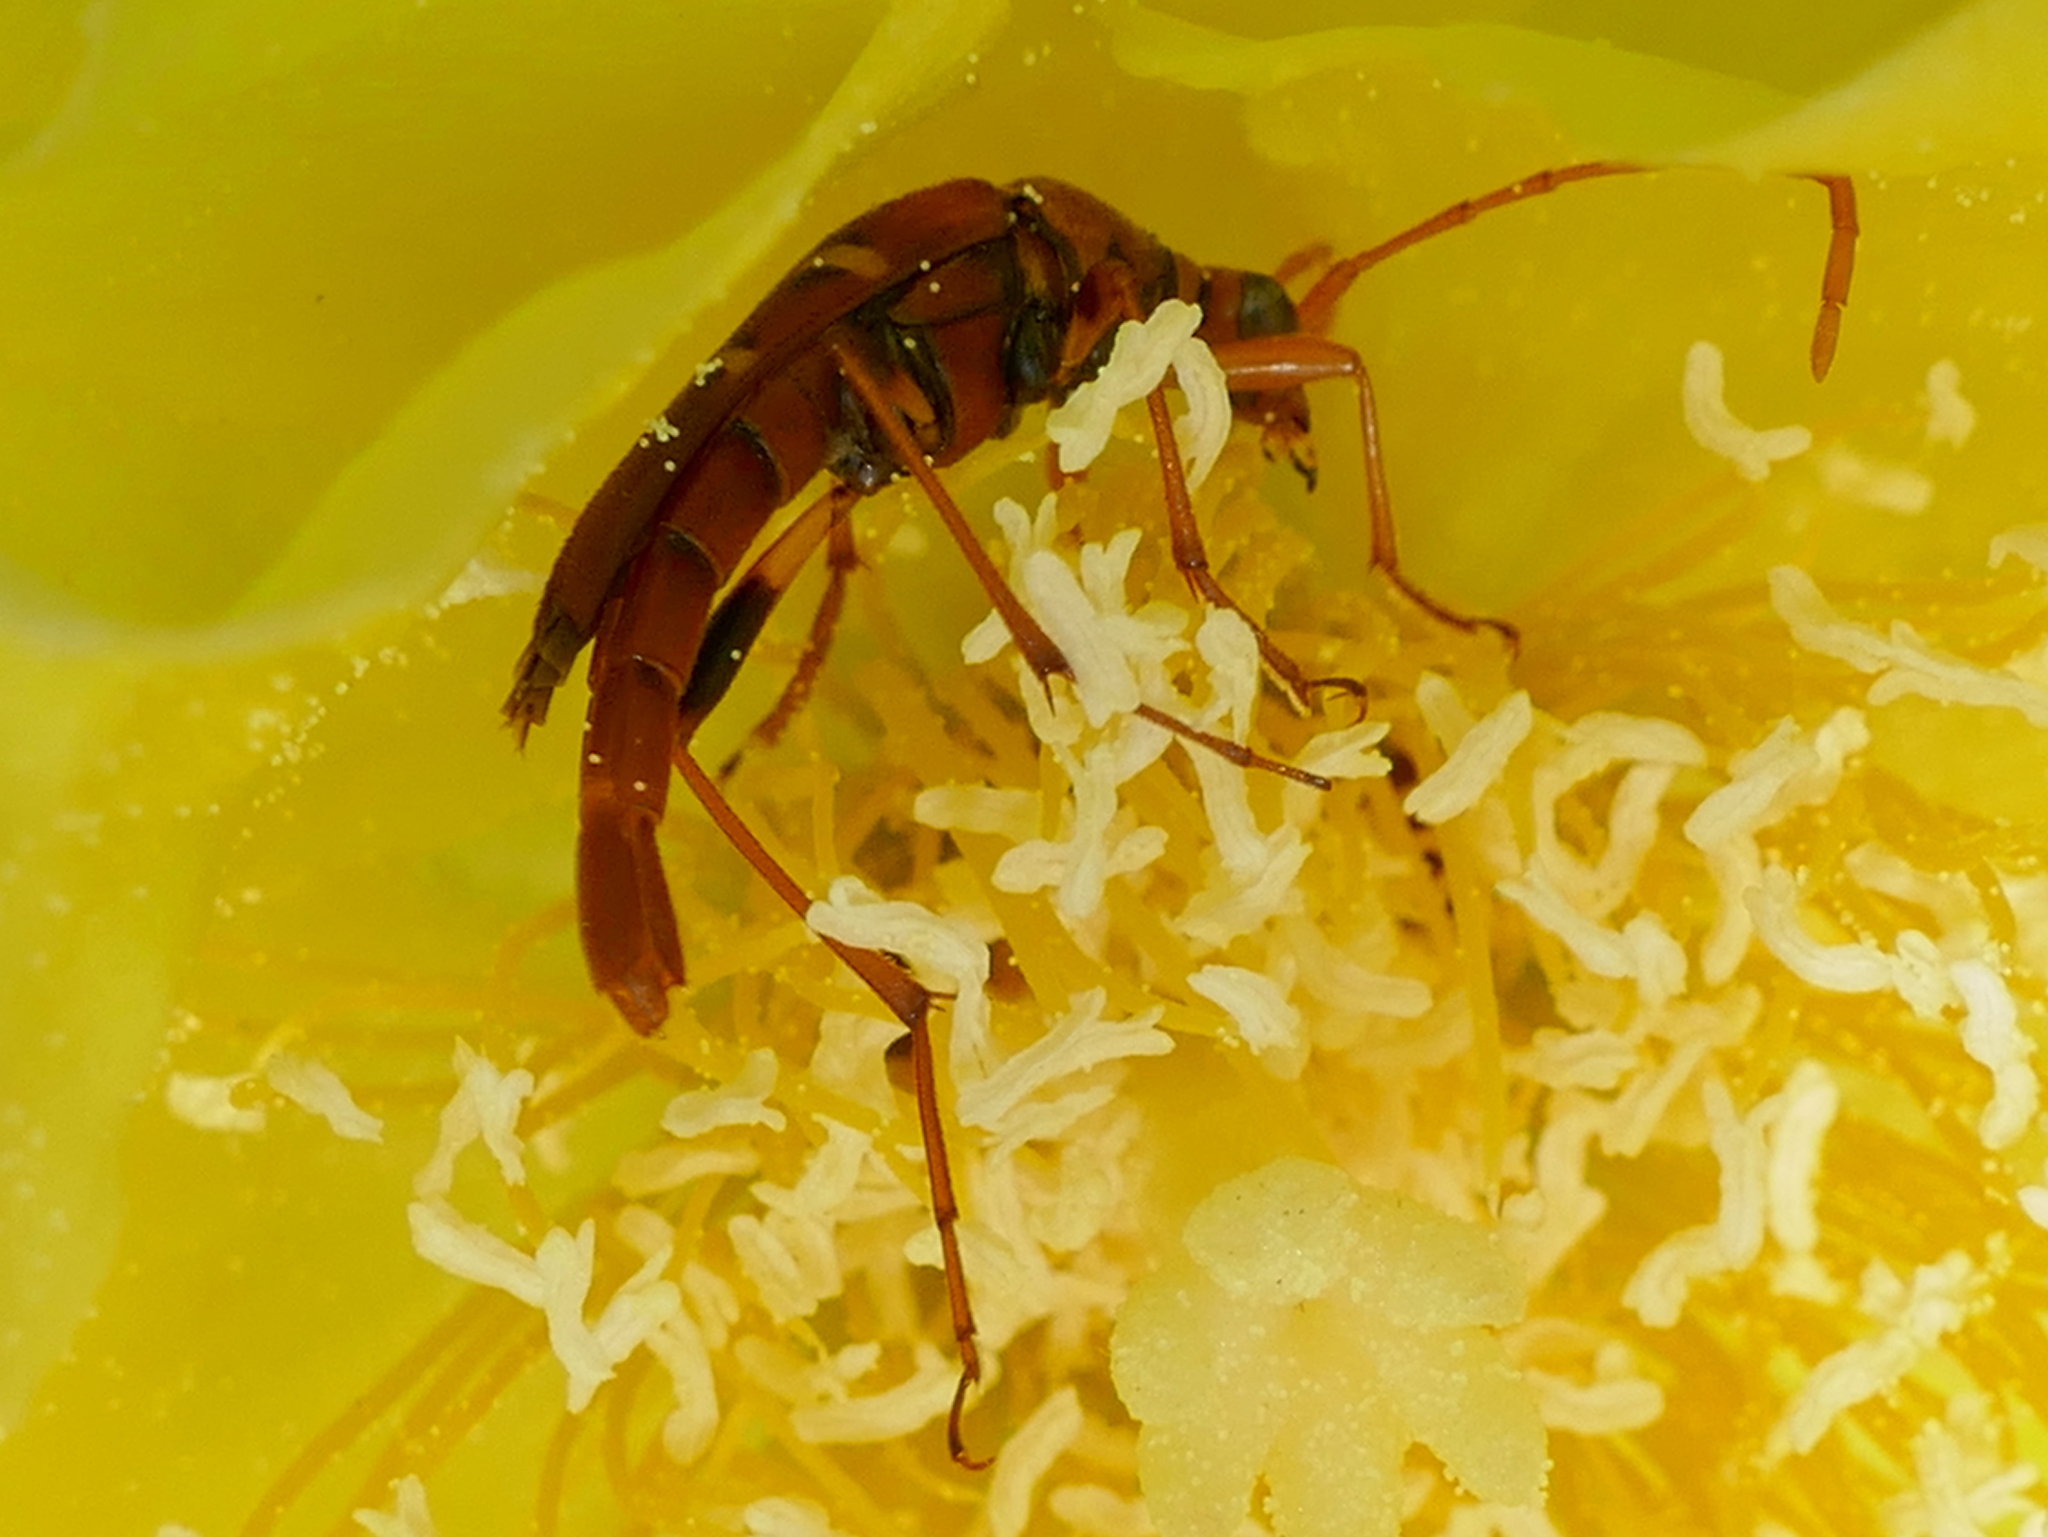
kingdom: Animalia
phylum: Arthropoda
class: Insecta
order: Coleoptera
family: Cerambycidae
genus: Strangalia
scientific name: Strangalia strigosa
